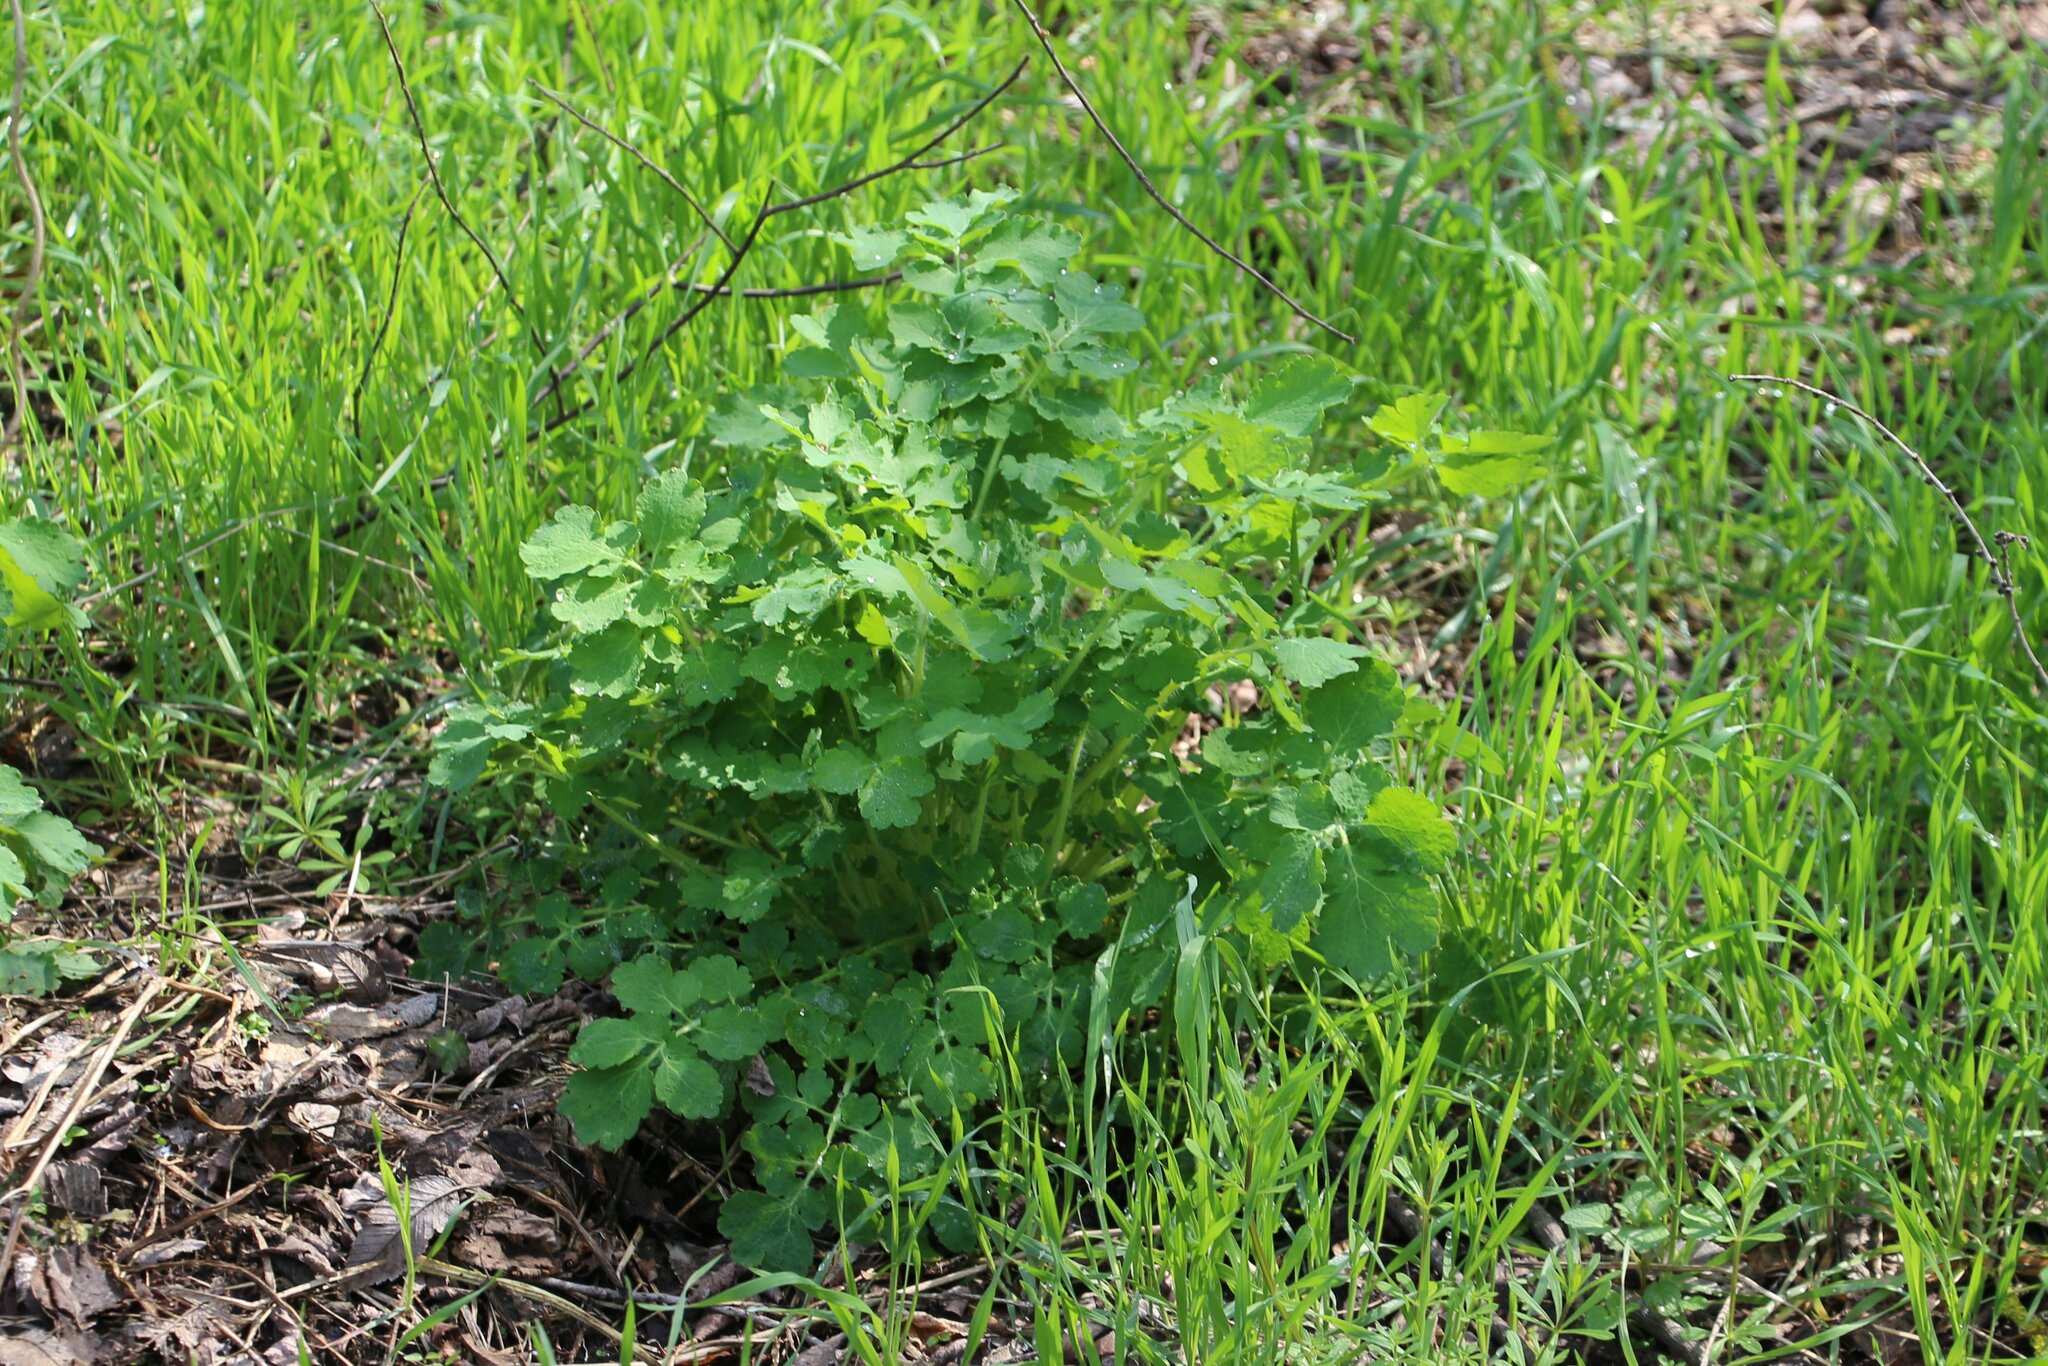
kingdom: Plantae
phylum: Tracheophyta
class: Magnoliopsida
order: Ranunculales
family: Papaveraceae
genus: Chelidonium
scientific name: Chelidonium majus
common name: Greater celandine
